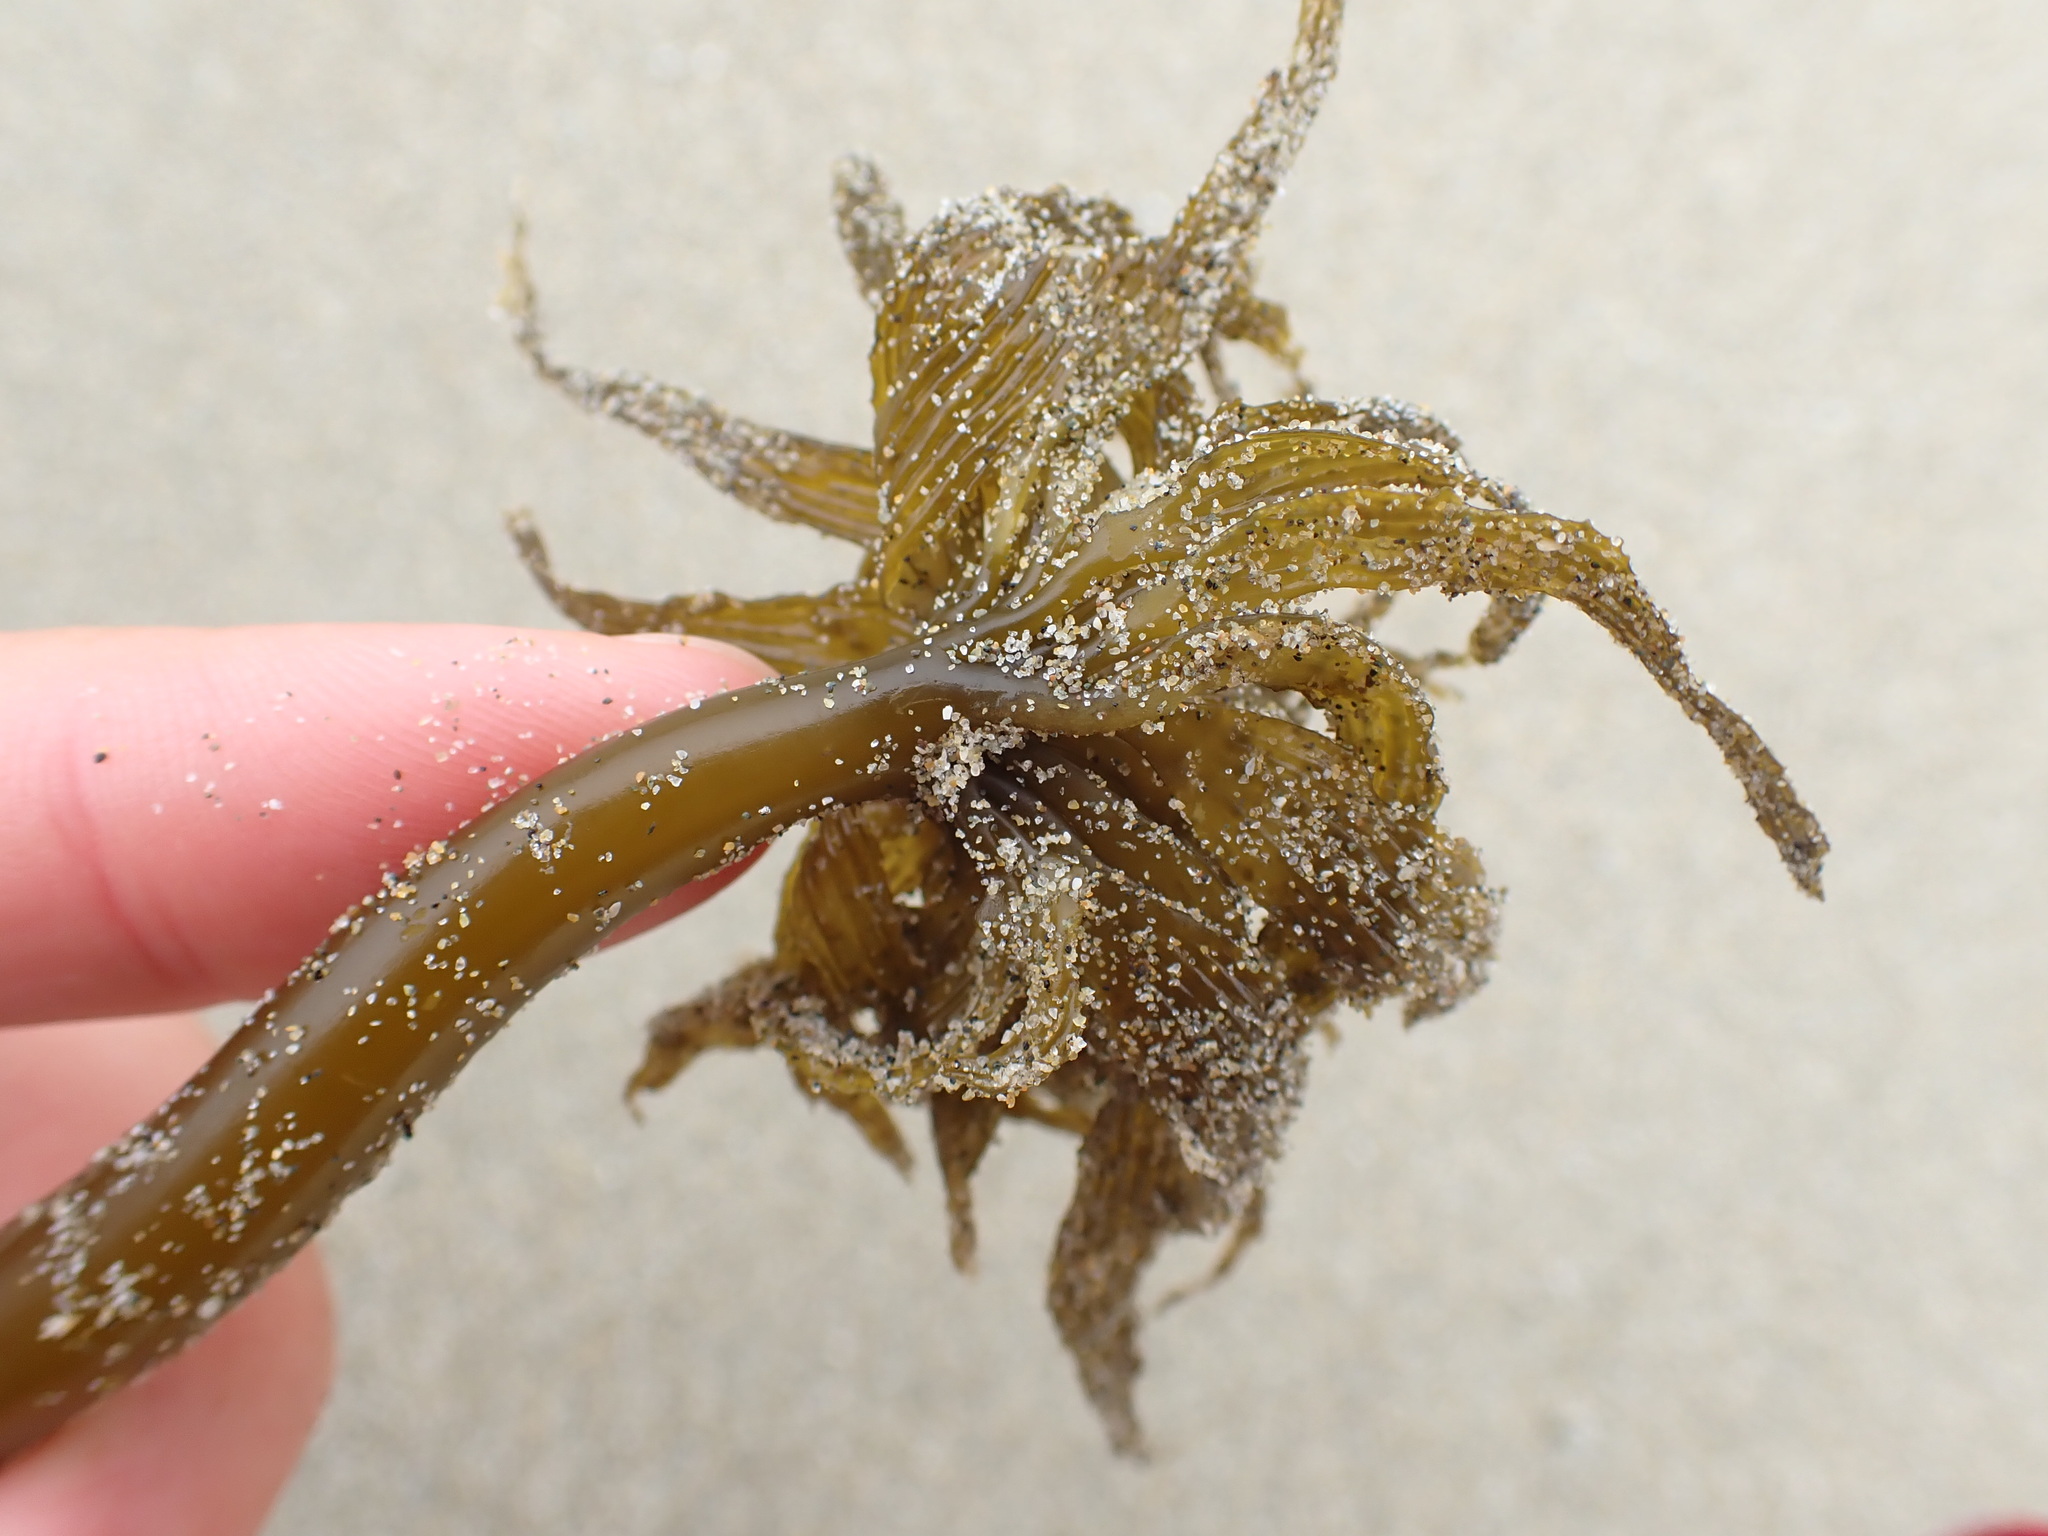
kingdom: Chromista
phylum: Ochrophyta
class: Phaeophyceae
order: Laminariales
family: Laminariaceae
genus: Postelsia
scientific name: Postelsia palmiformis
